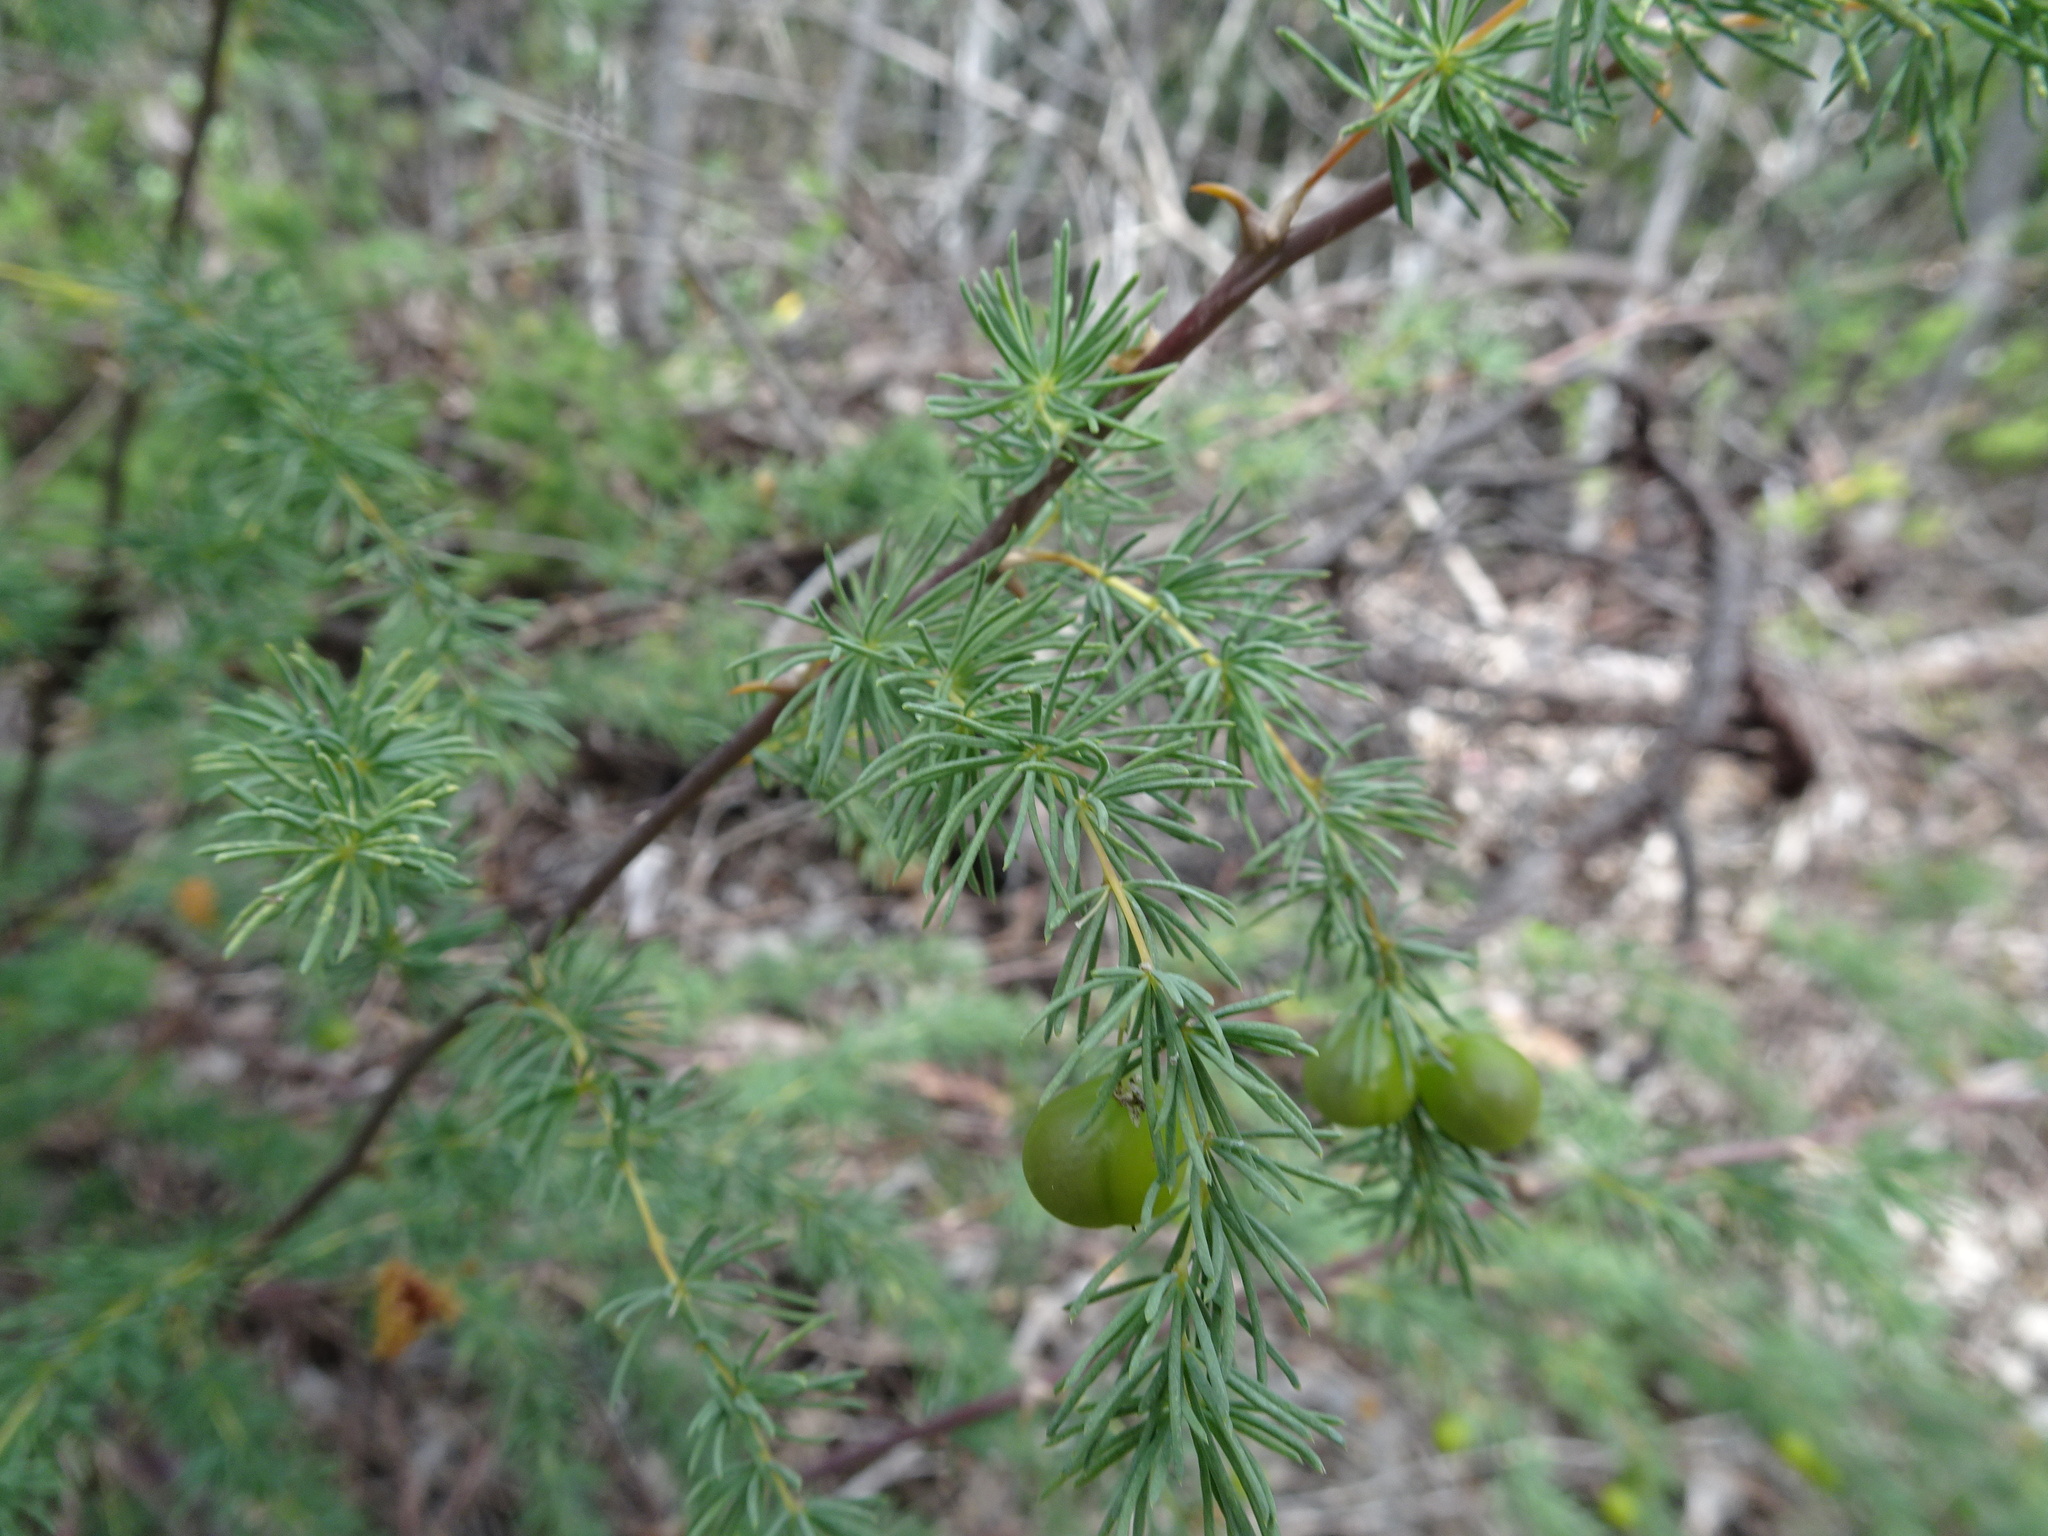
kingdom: Plantae
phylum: Tracheophyta
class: Liliopsida
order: Asparagales
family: Asparagaceae
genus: Asparagus
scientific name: Asparagus rubicundus
